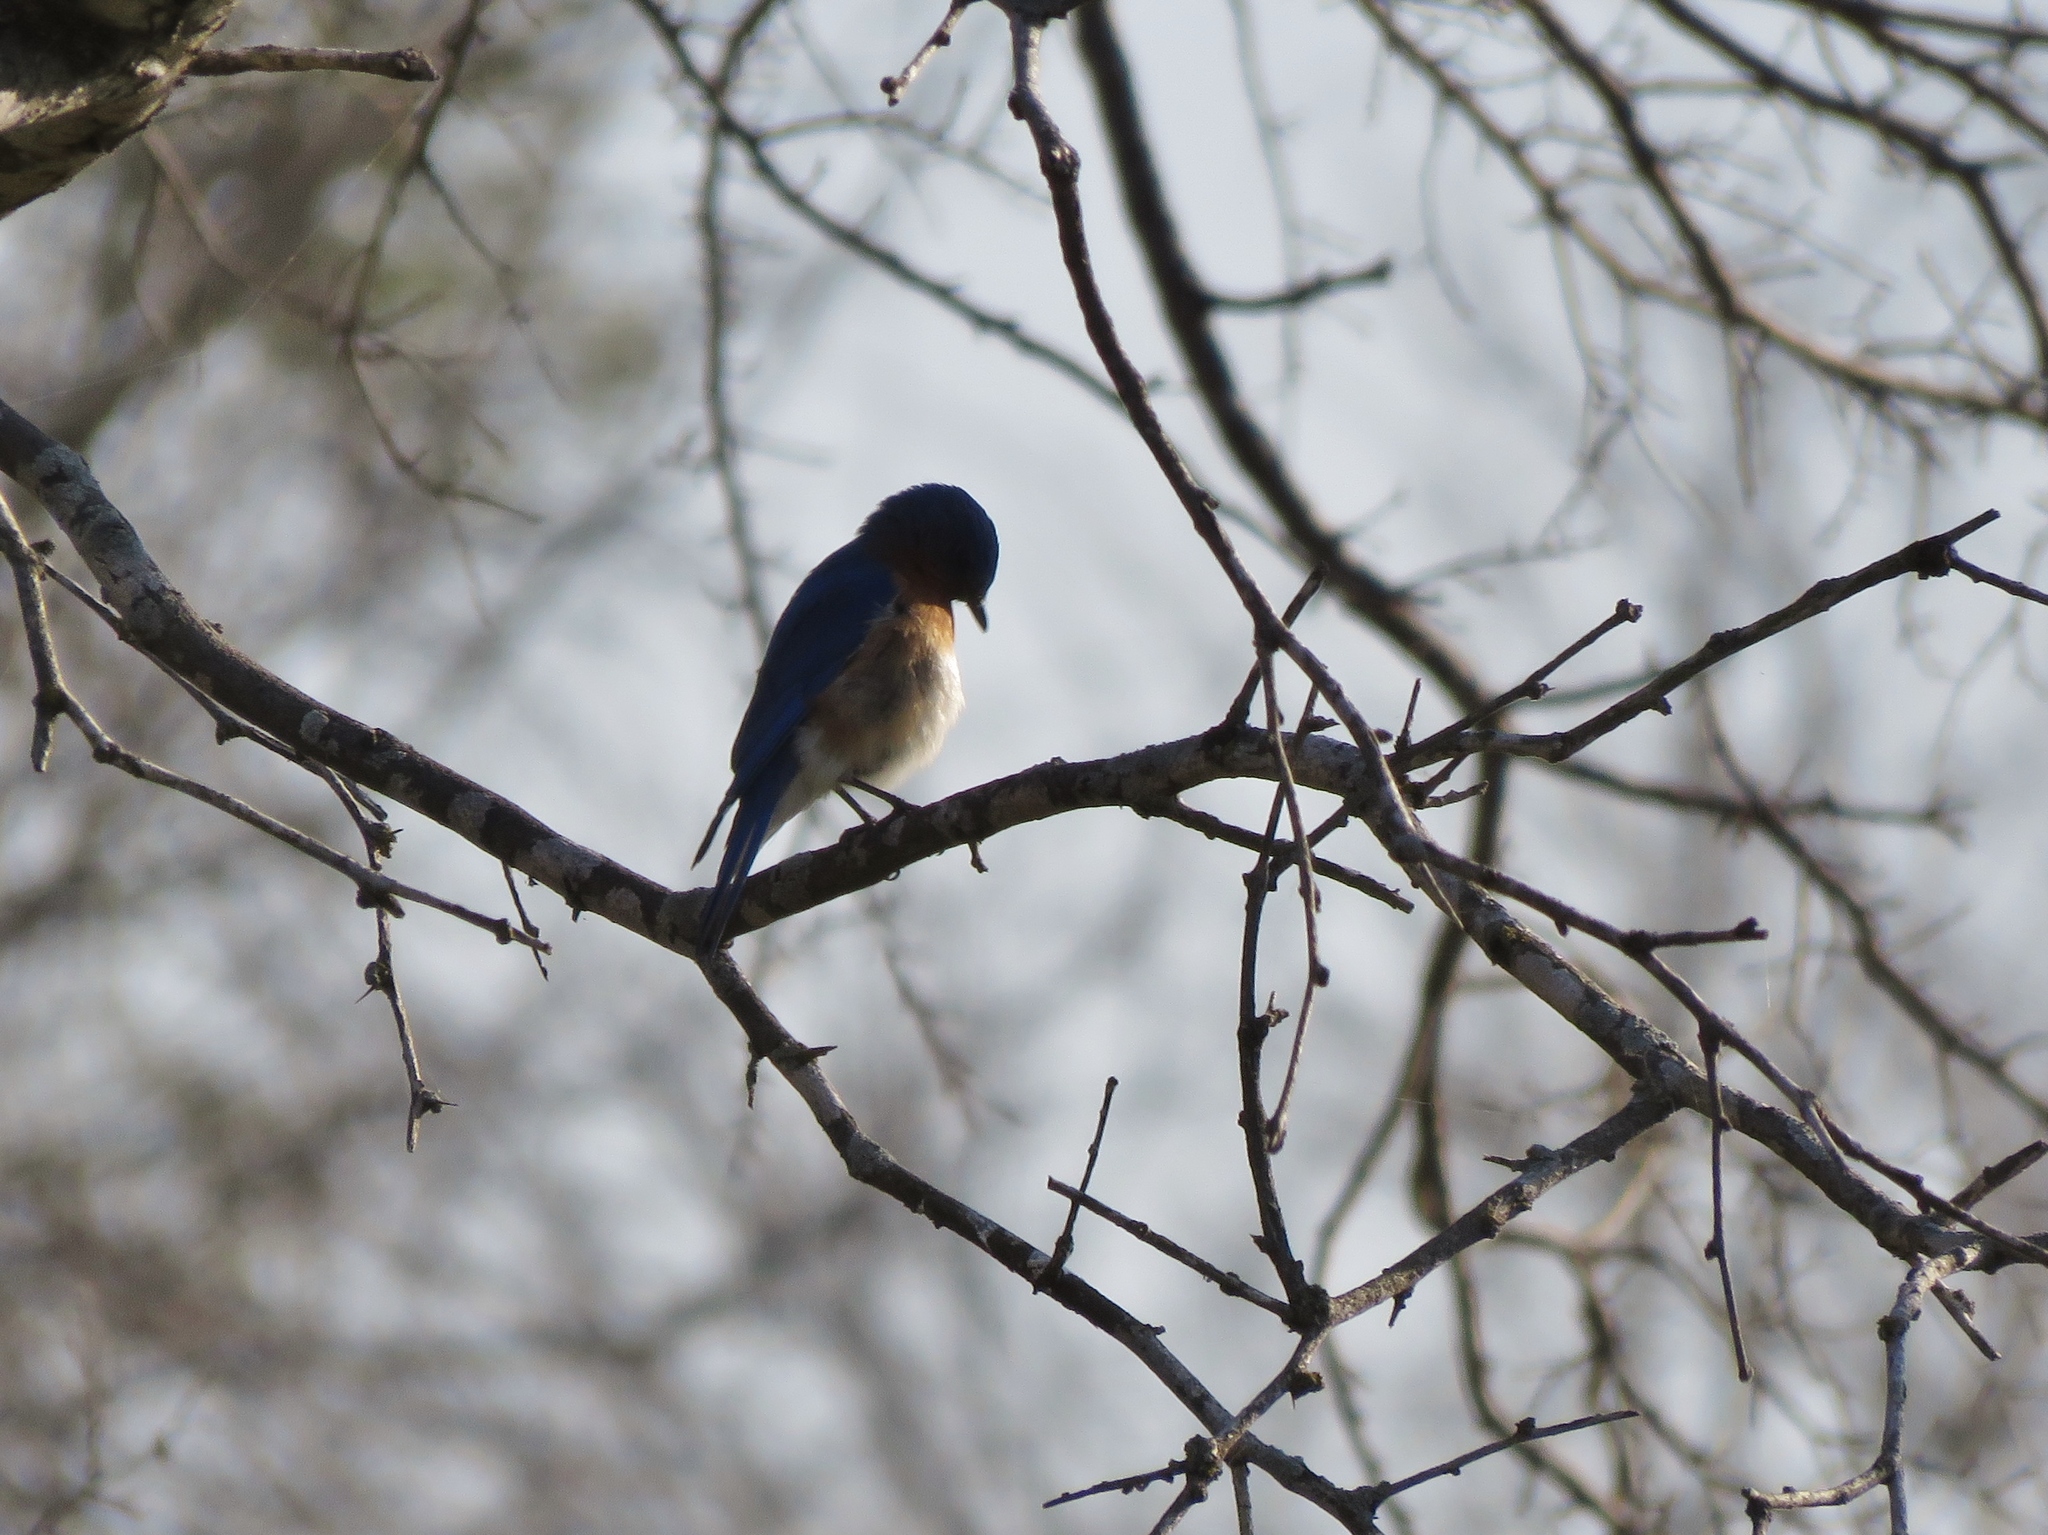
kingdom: Animalia
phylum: Chordata
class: Aves
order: Passeriformes
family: Turdidae
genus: Sialia
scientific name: Sialia sialis
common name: Eastern bluebird
